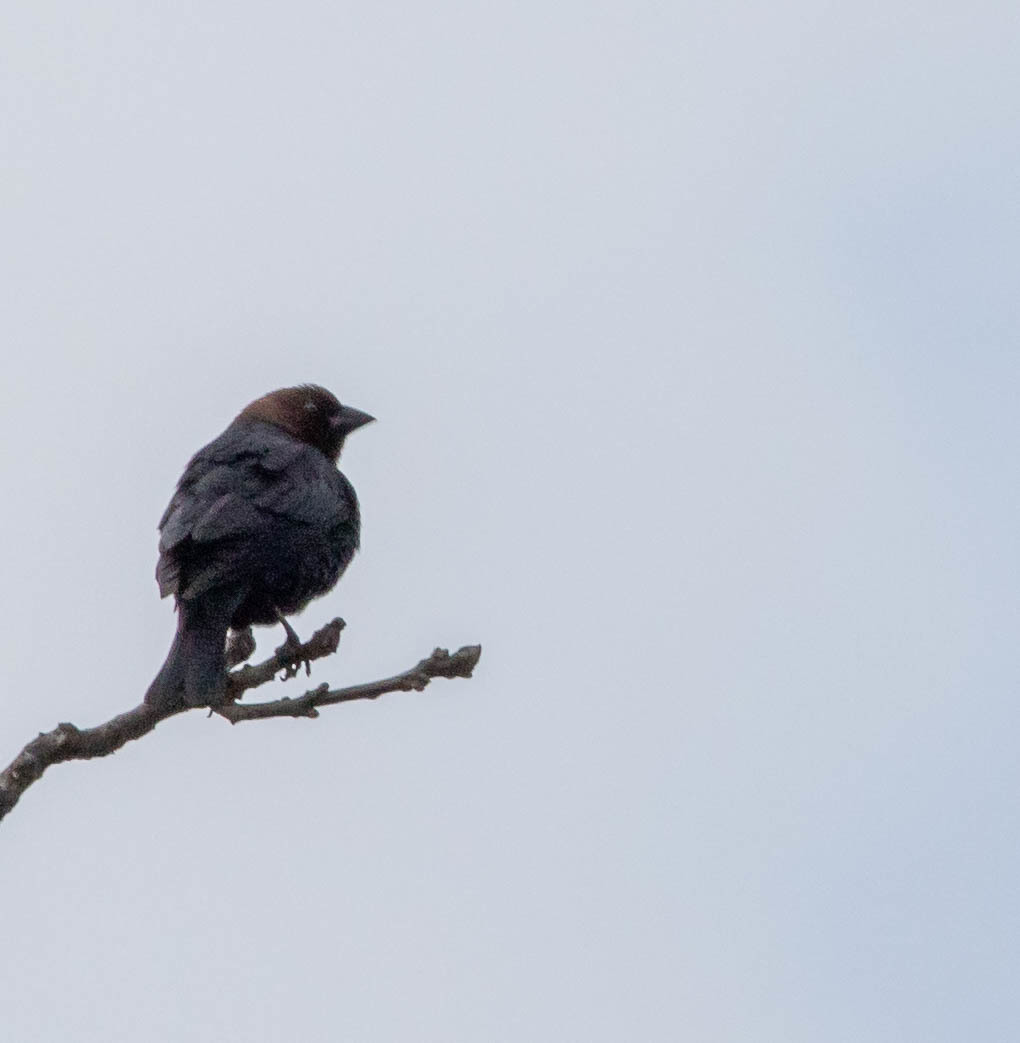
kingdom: Animalia
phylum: Chordata
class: Aves
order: Passeriformes
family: Icteridae
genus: Molothrus
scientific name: Molothrus ater
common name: Brown-headed cowbird
